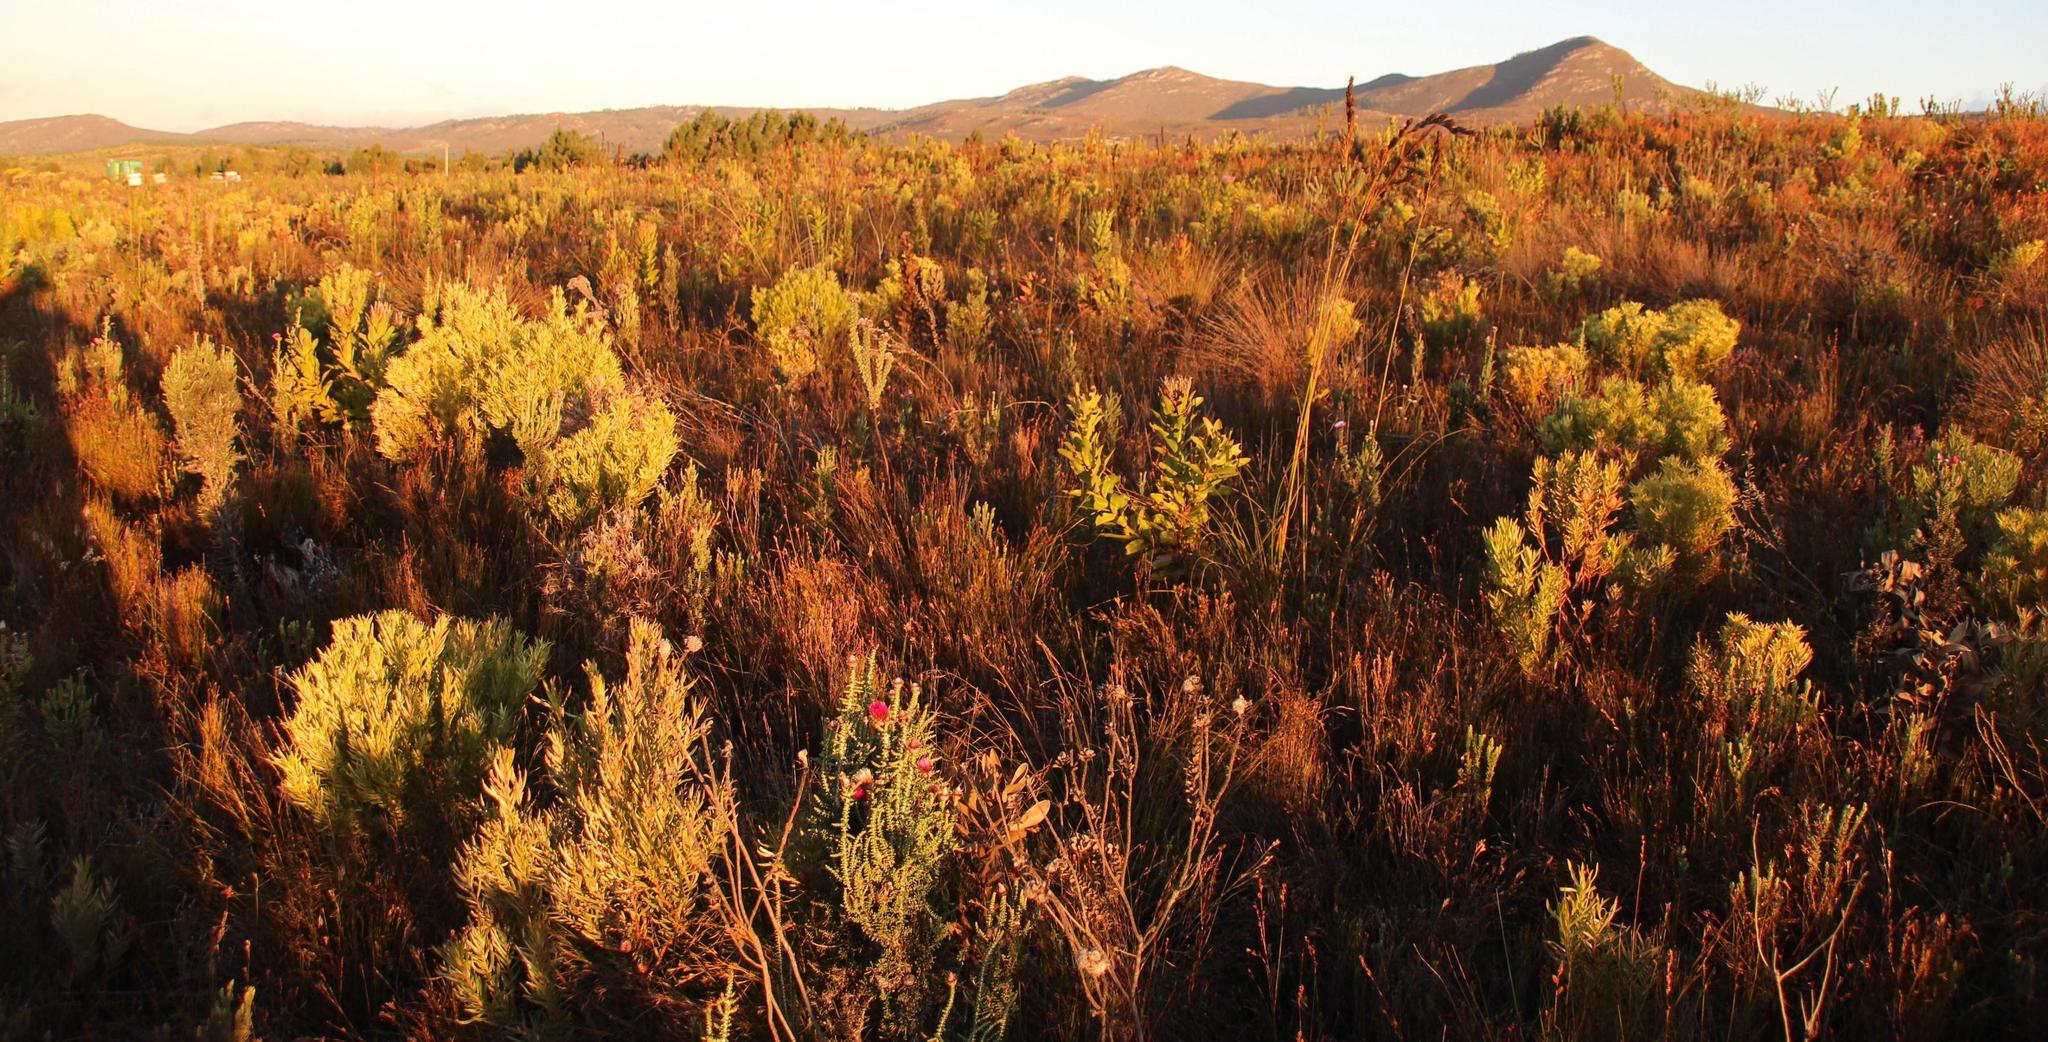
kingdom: Plantae
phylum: Tracheophyta
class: Liliopsida
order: Poales
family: Cyperaceae
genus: Tetraria
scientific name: Tetraria bromoides
